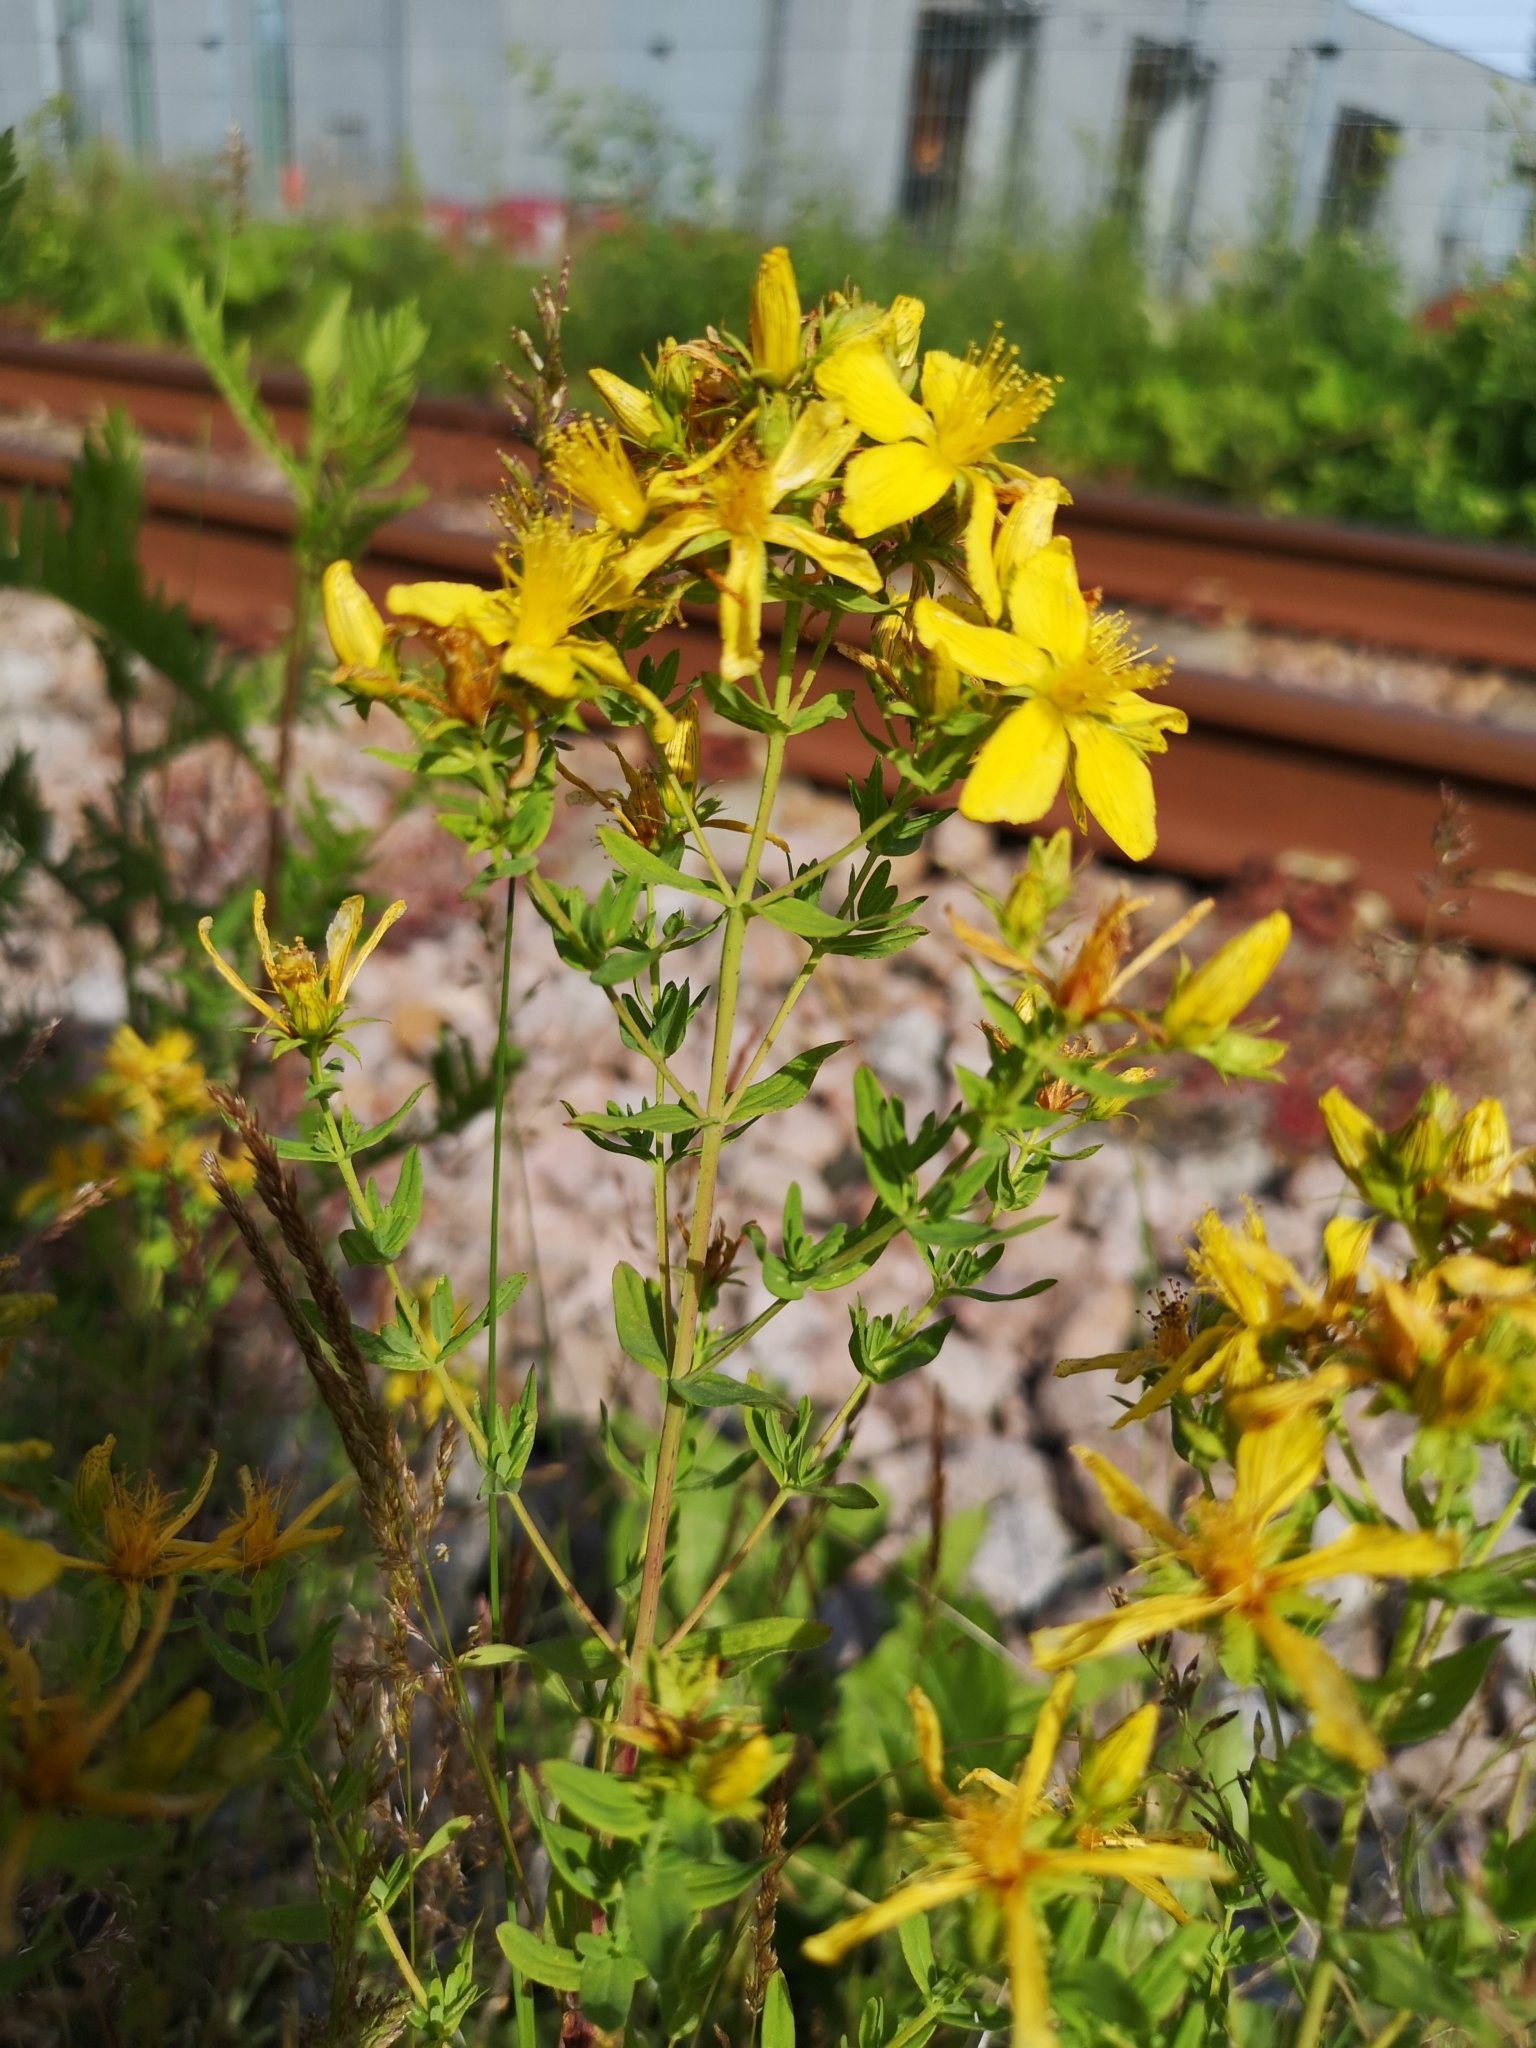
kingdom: Plantae
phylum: Tracheophyta
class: Magnoliopsida
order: Malpighiales
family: Hypericaceae
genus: Hypericum
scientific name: Hypericum perforatum
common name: Common st. johnswort
